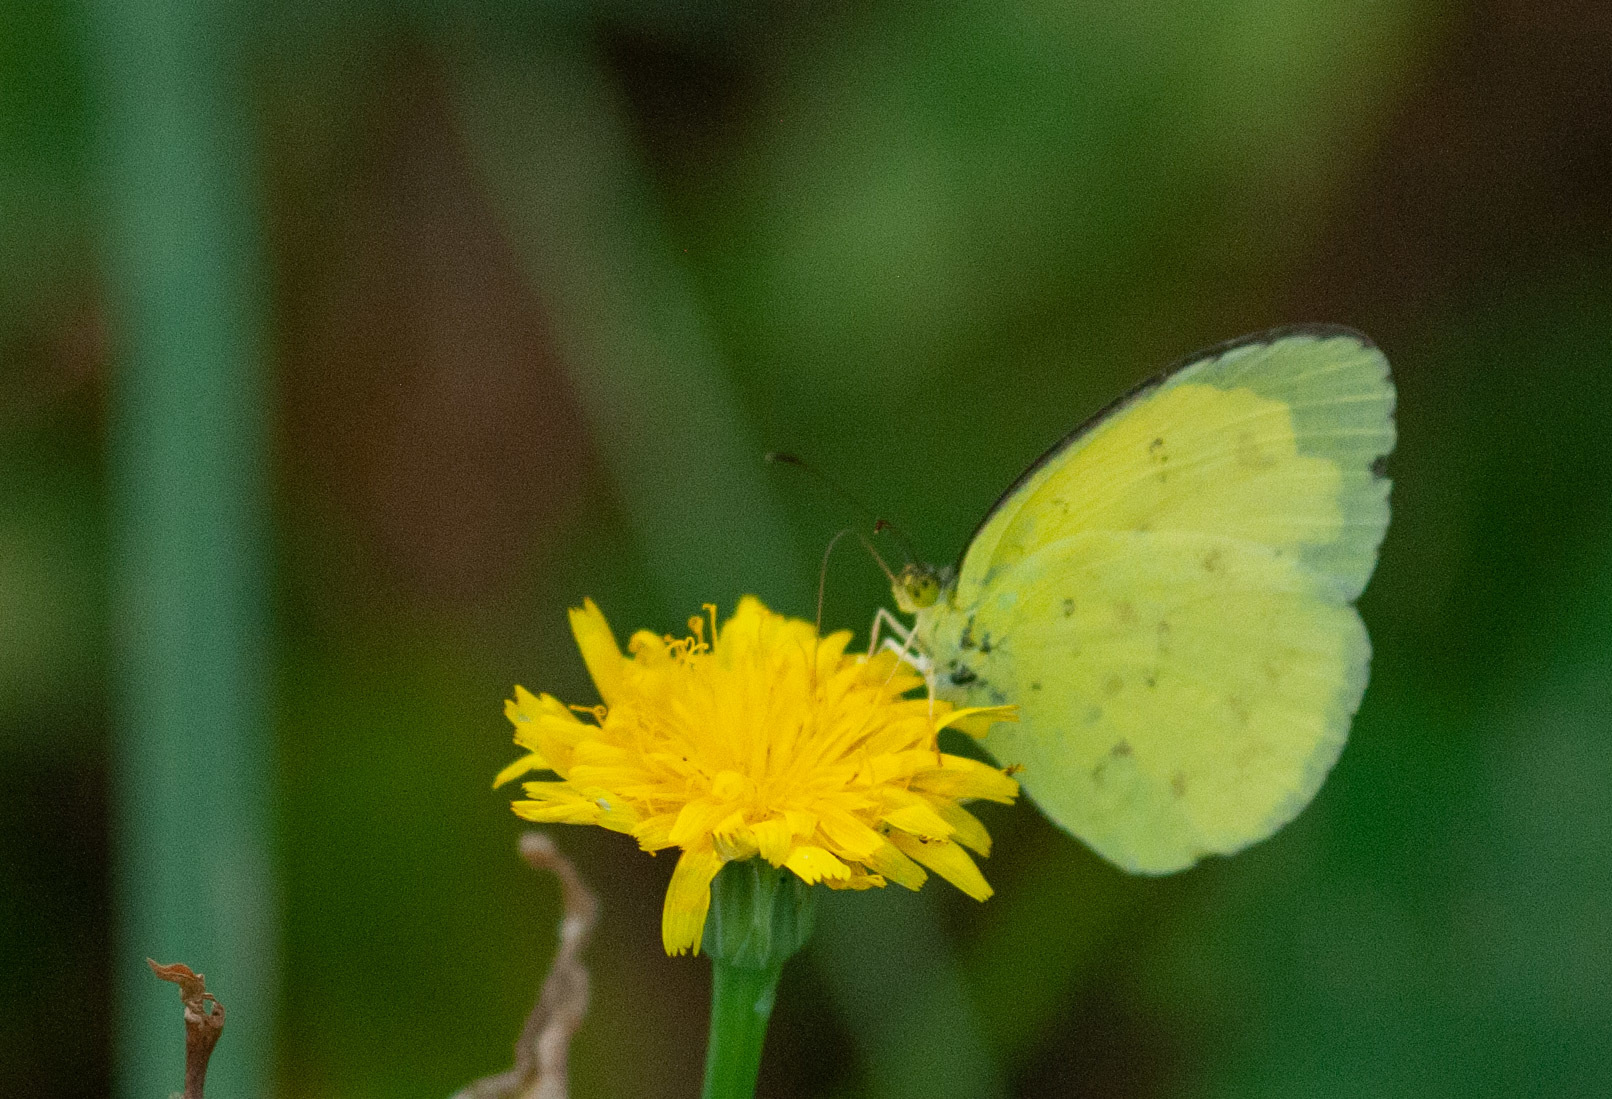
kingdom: Animalia
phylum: Arthropoda
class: Insecta
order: Lepidoptera
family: Pieridae
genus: Eurema
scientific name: Eurema hecabe
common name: Pale grass yellow
